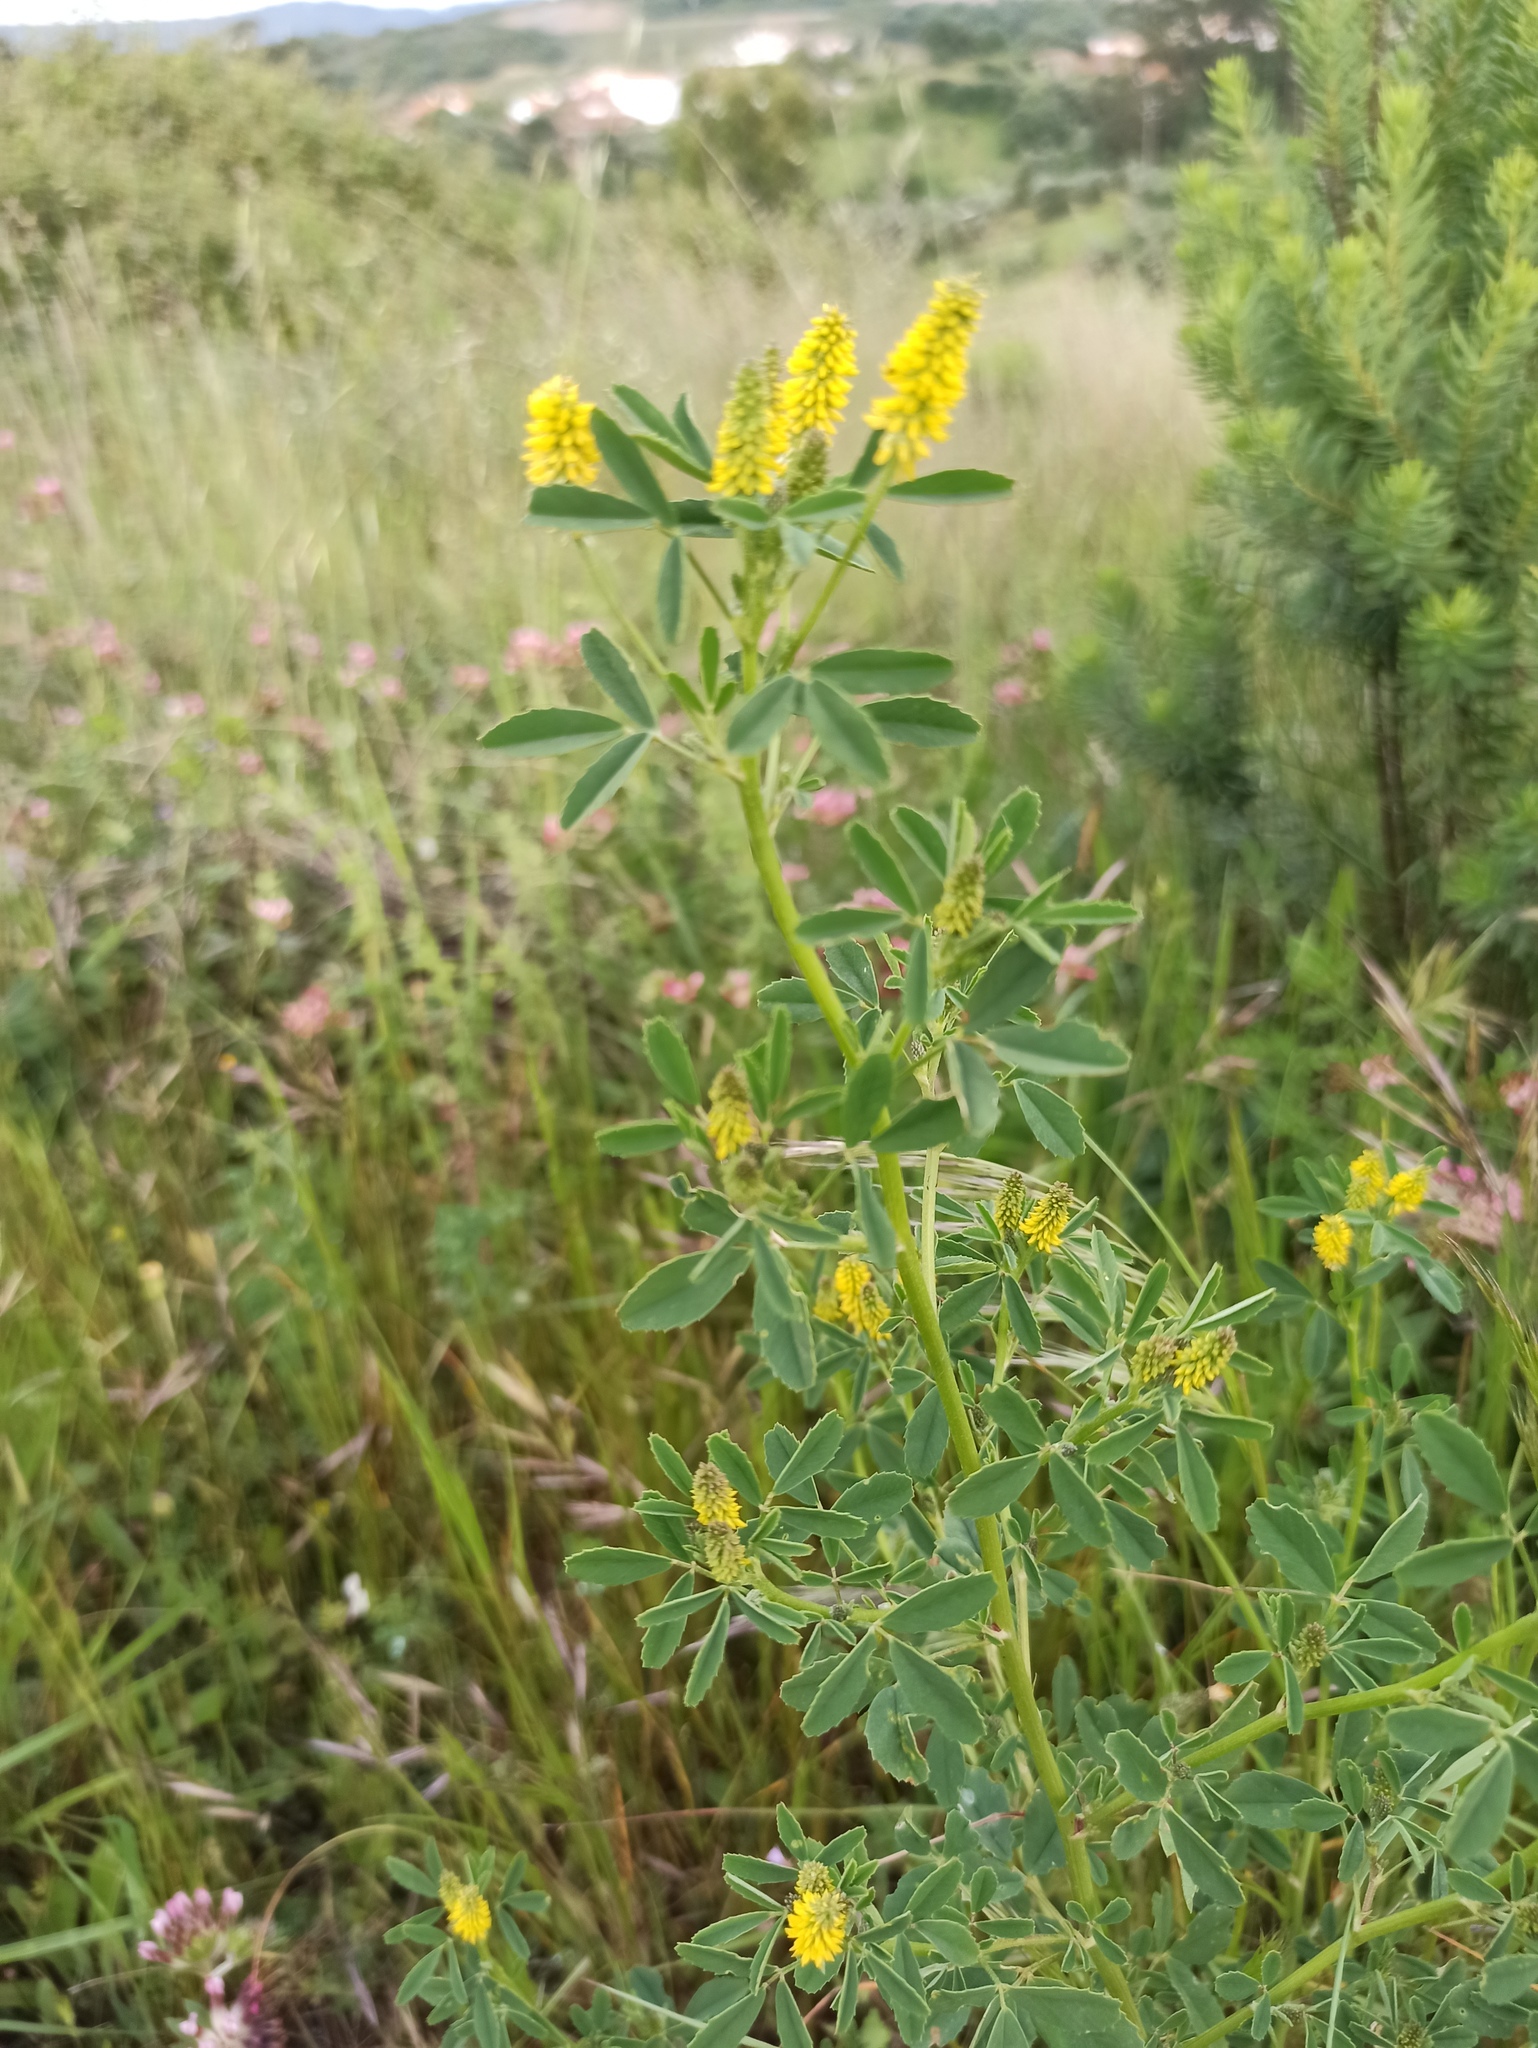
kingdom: Plantae
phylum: Tracheophyta
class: Magnoliopsida
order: Fabales
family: Fabaceae
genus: Melilotus
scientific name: Melilotus indicus
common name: Small melilot
